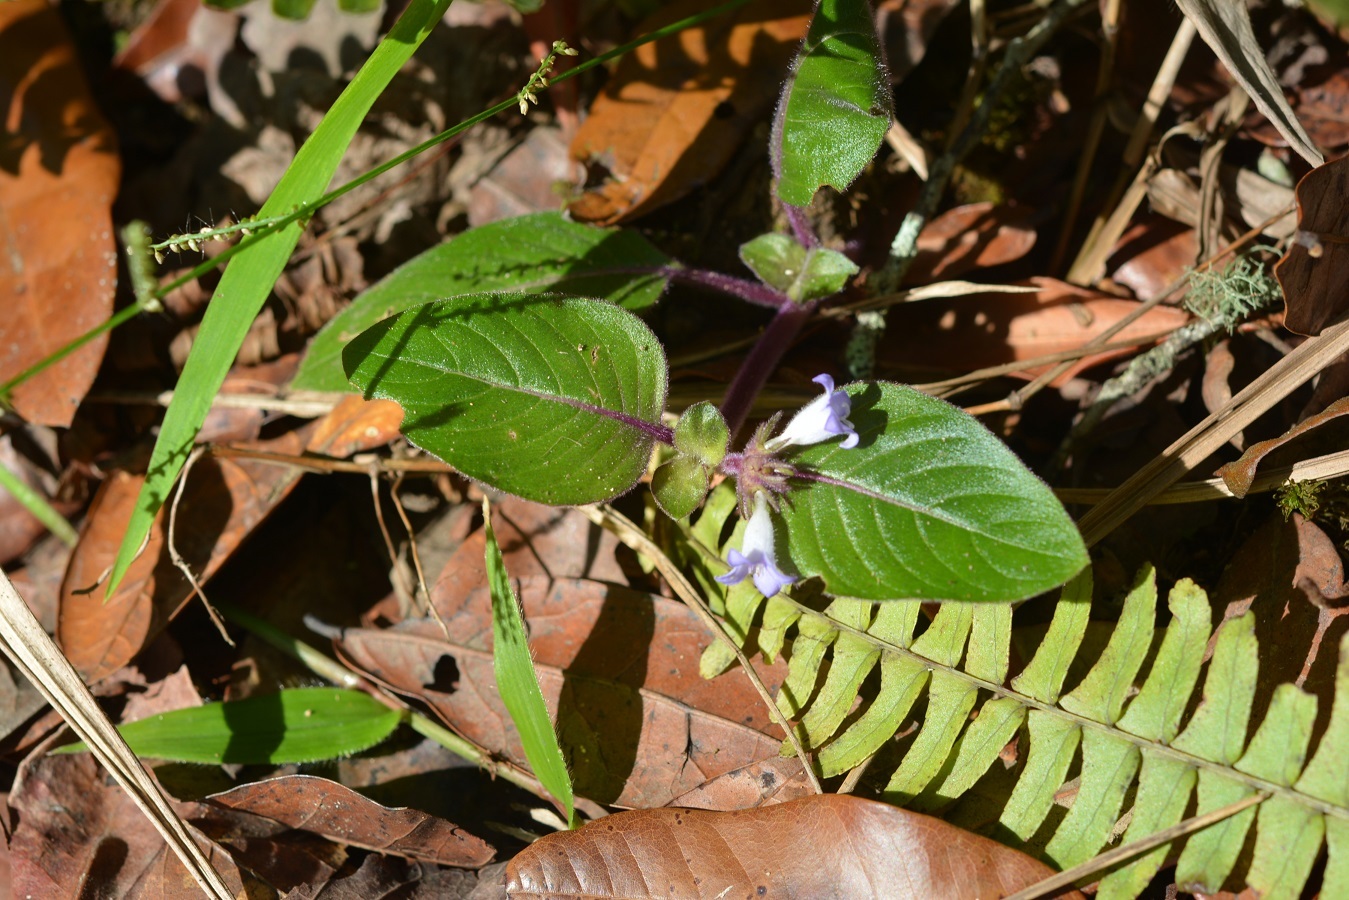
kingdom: Plantae
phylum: Tracheophyta
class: Magnoliopsida
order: Gentianales
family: Rubiaceae
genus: Coccocypselum
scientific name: Coccocypselum hirsutum
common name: Yerba de guava
